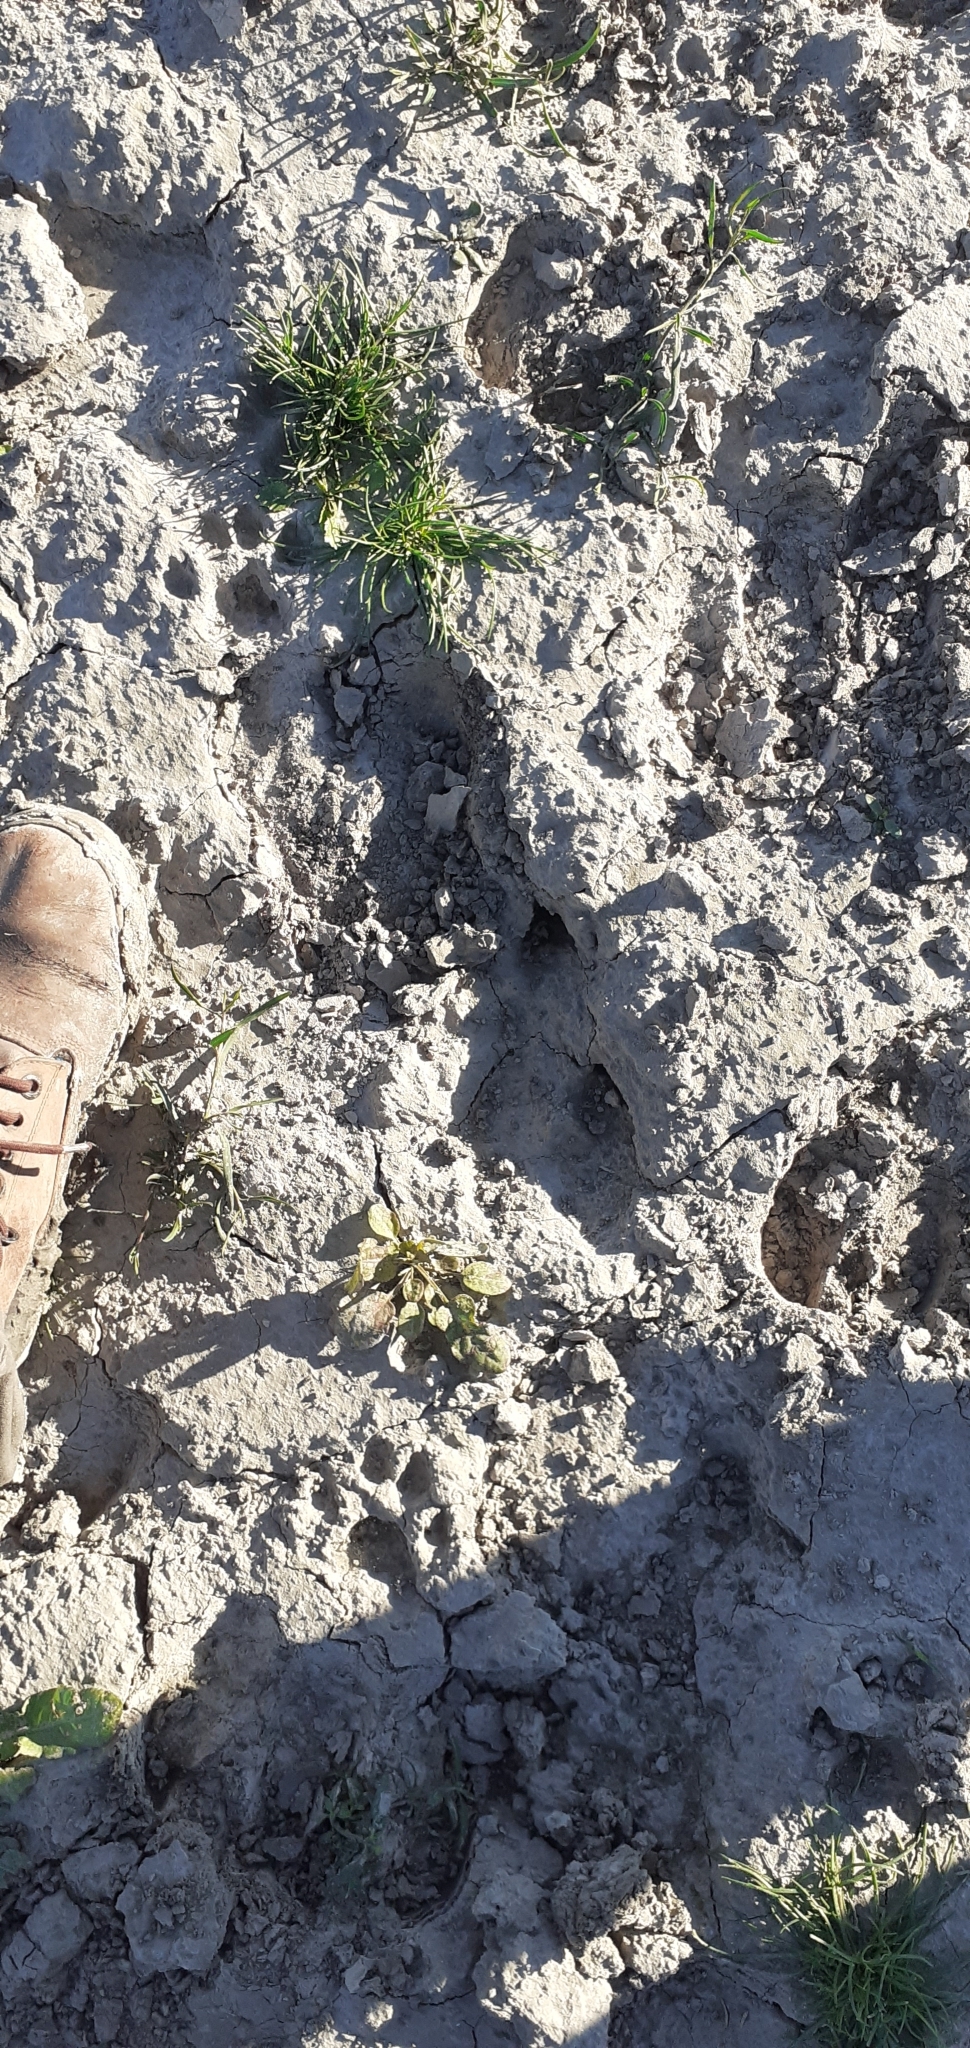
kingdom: Animalia
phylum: Chordata
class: Mammalia
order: Carnivora
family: Felidae
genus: Puma
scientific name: Puma concolor
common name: Puma
